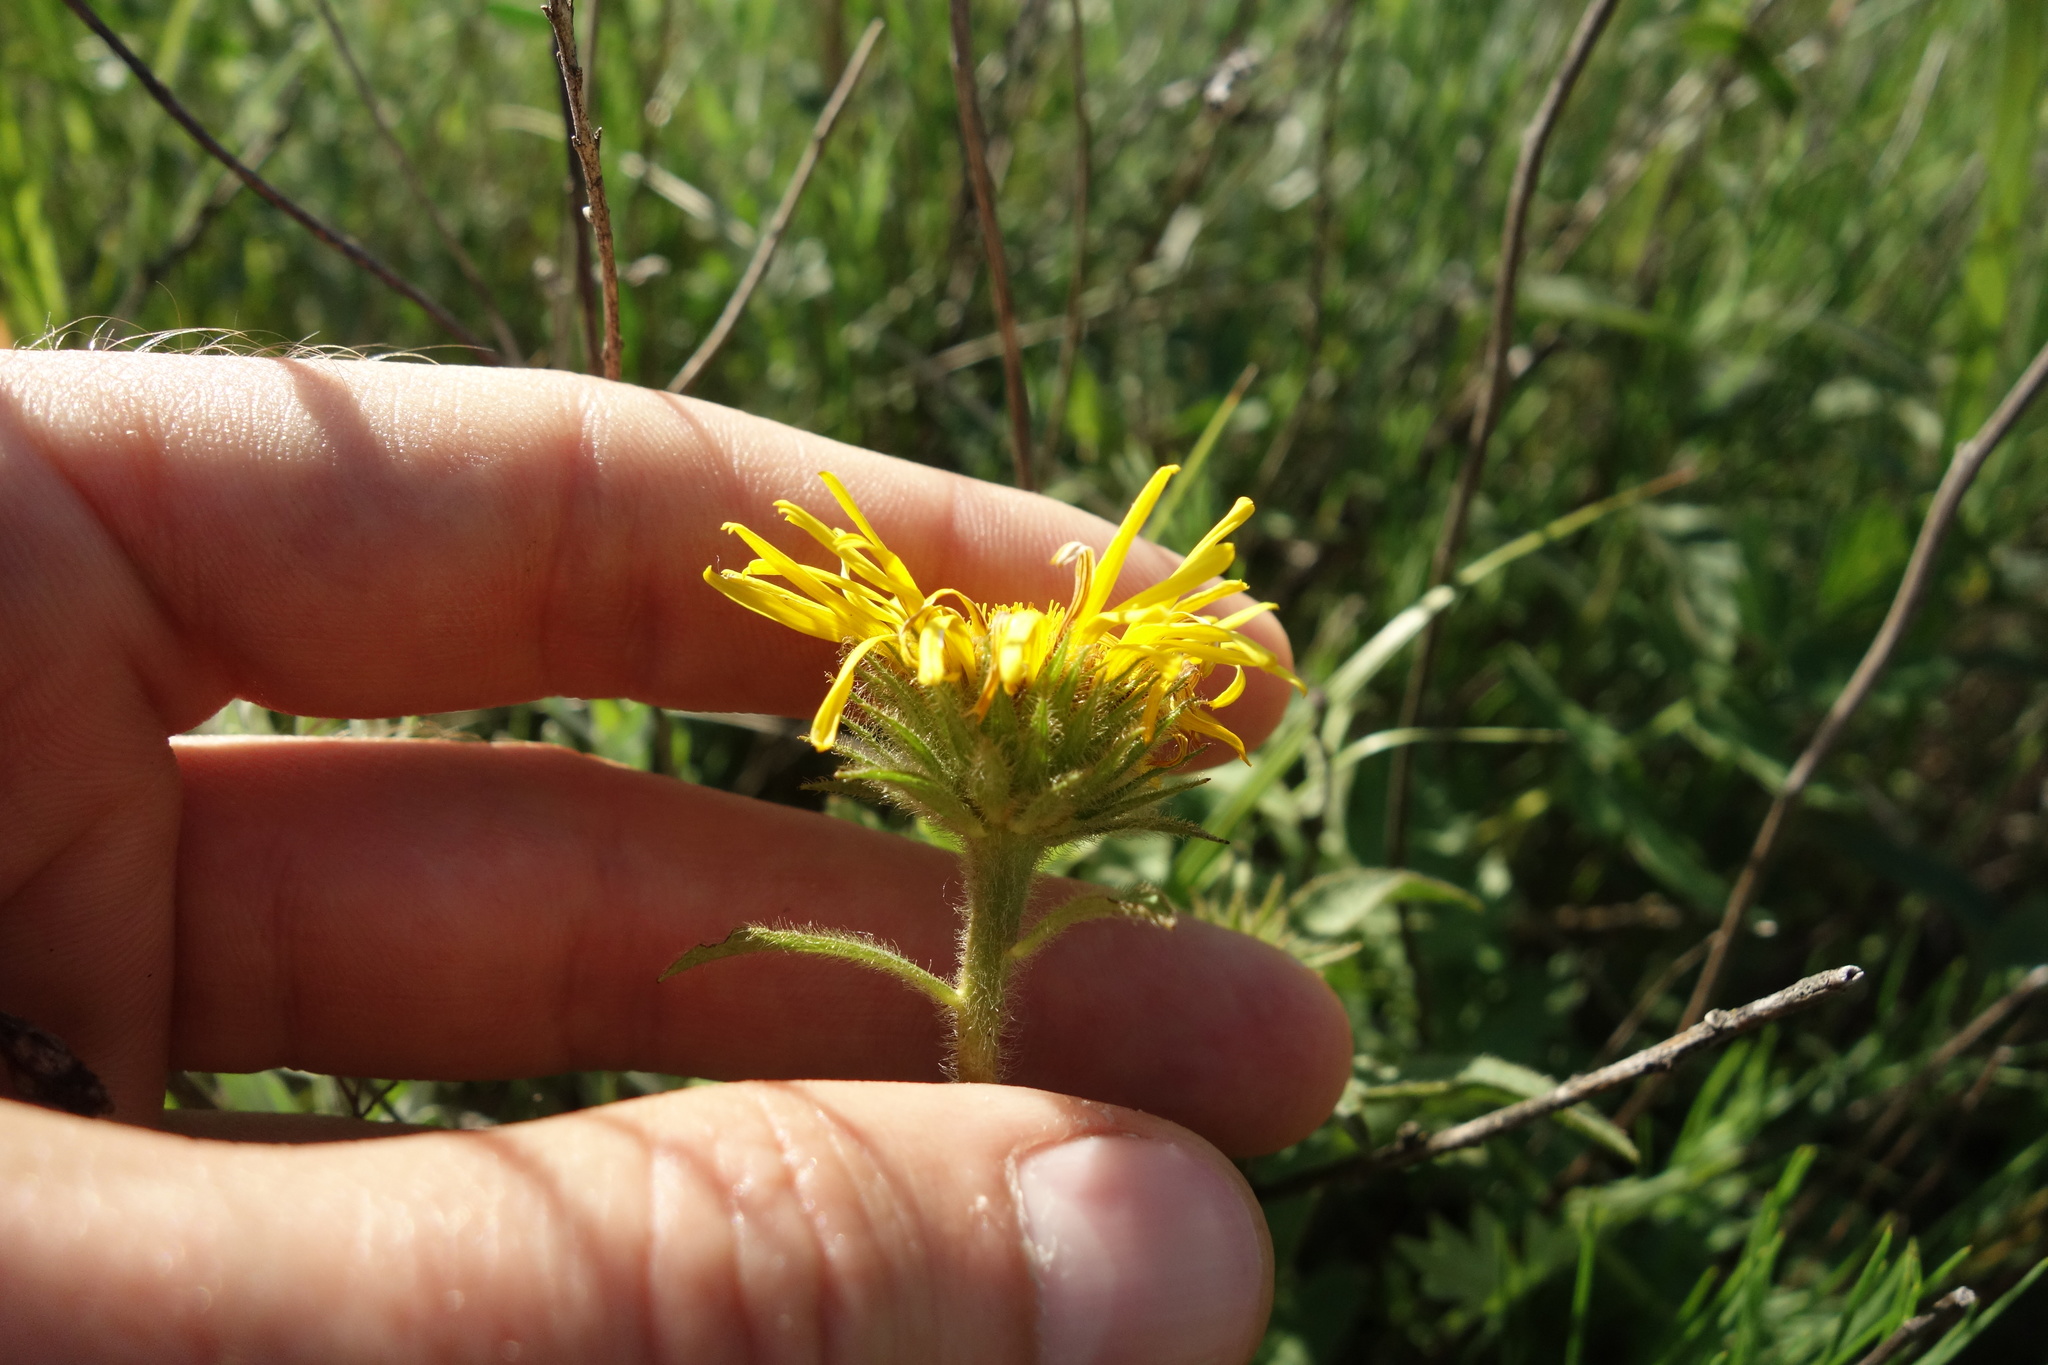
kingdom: Plantae
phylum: Tracheophyta
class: Magnoliopsida
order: Asterales
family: Asteraceae
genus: Pentanema
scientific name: Pentanema hirtum
